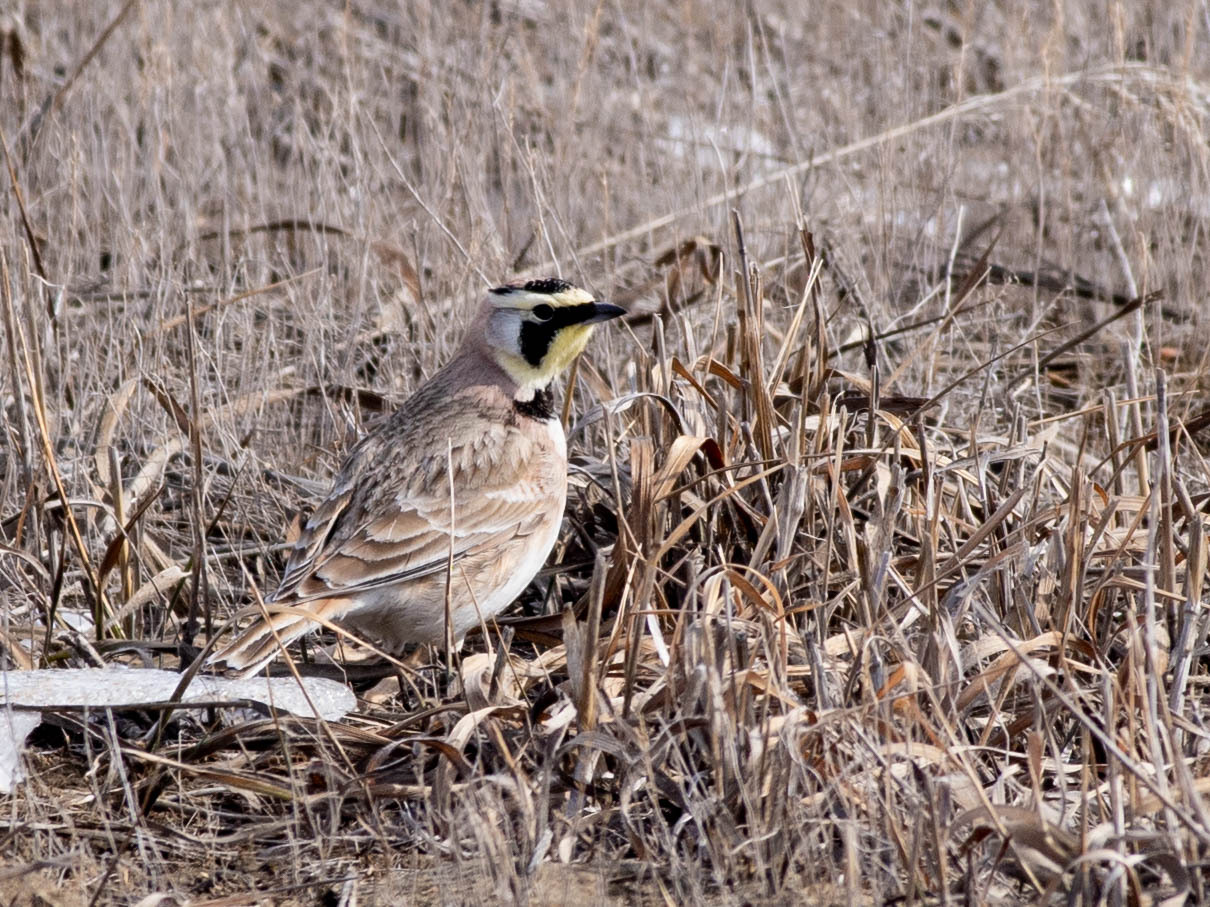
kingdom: Animalia
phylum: Chordata
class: Aves
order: Passeriformes
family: Alaudidae
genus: Eremophila
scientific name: Eremophila alpestris
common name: Horned lark
